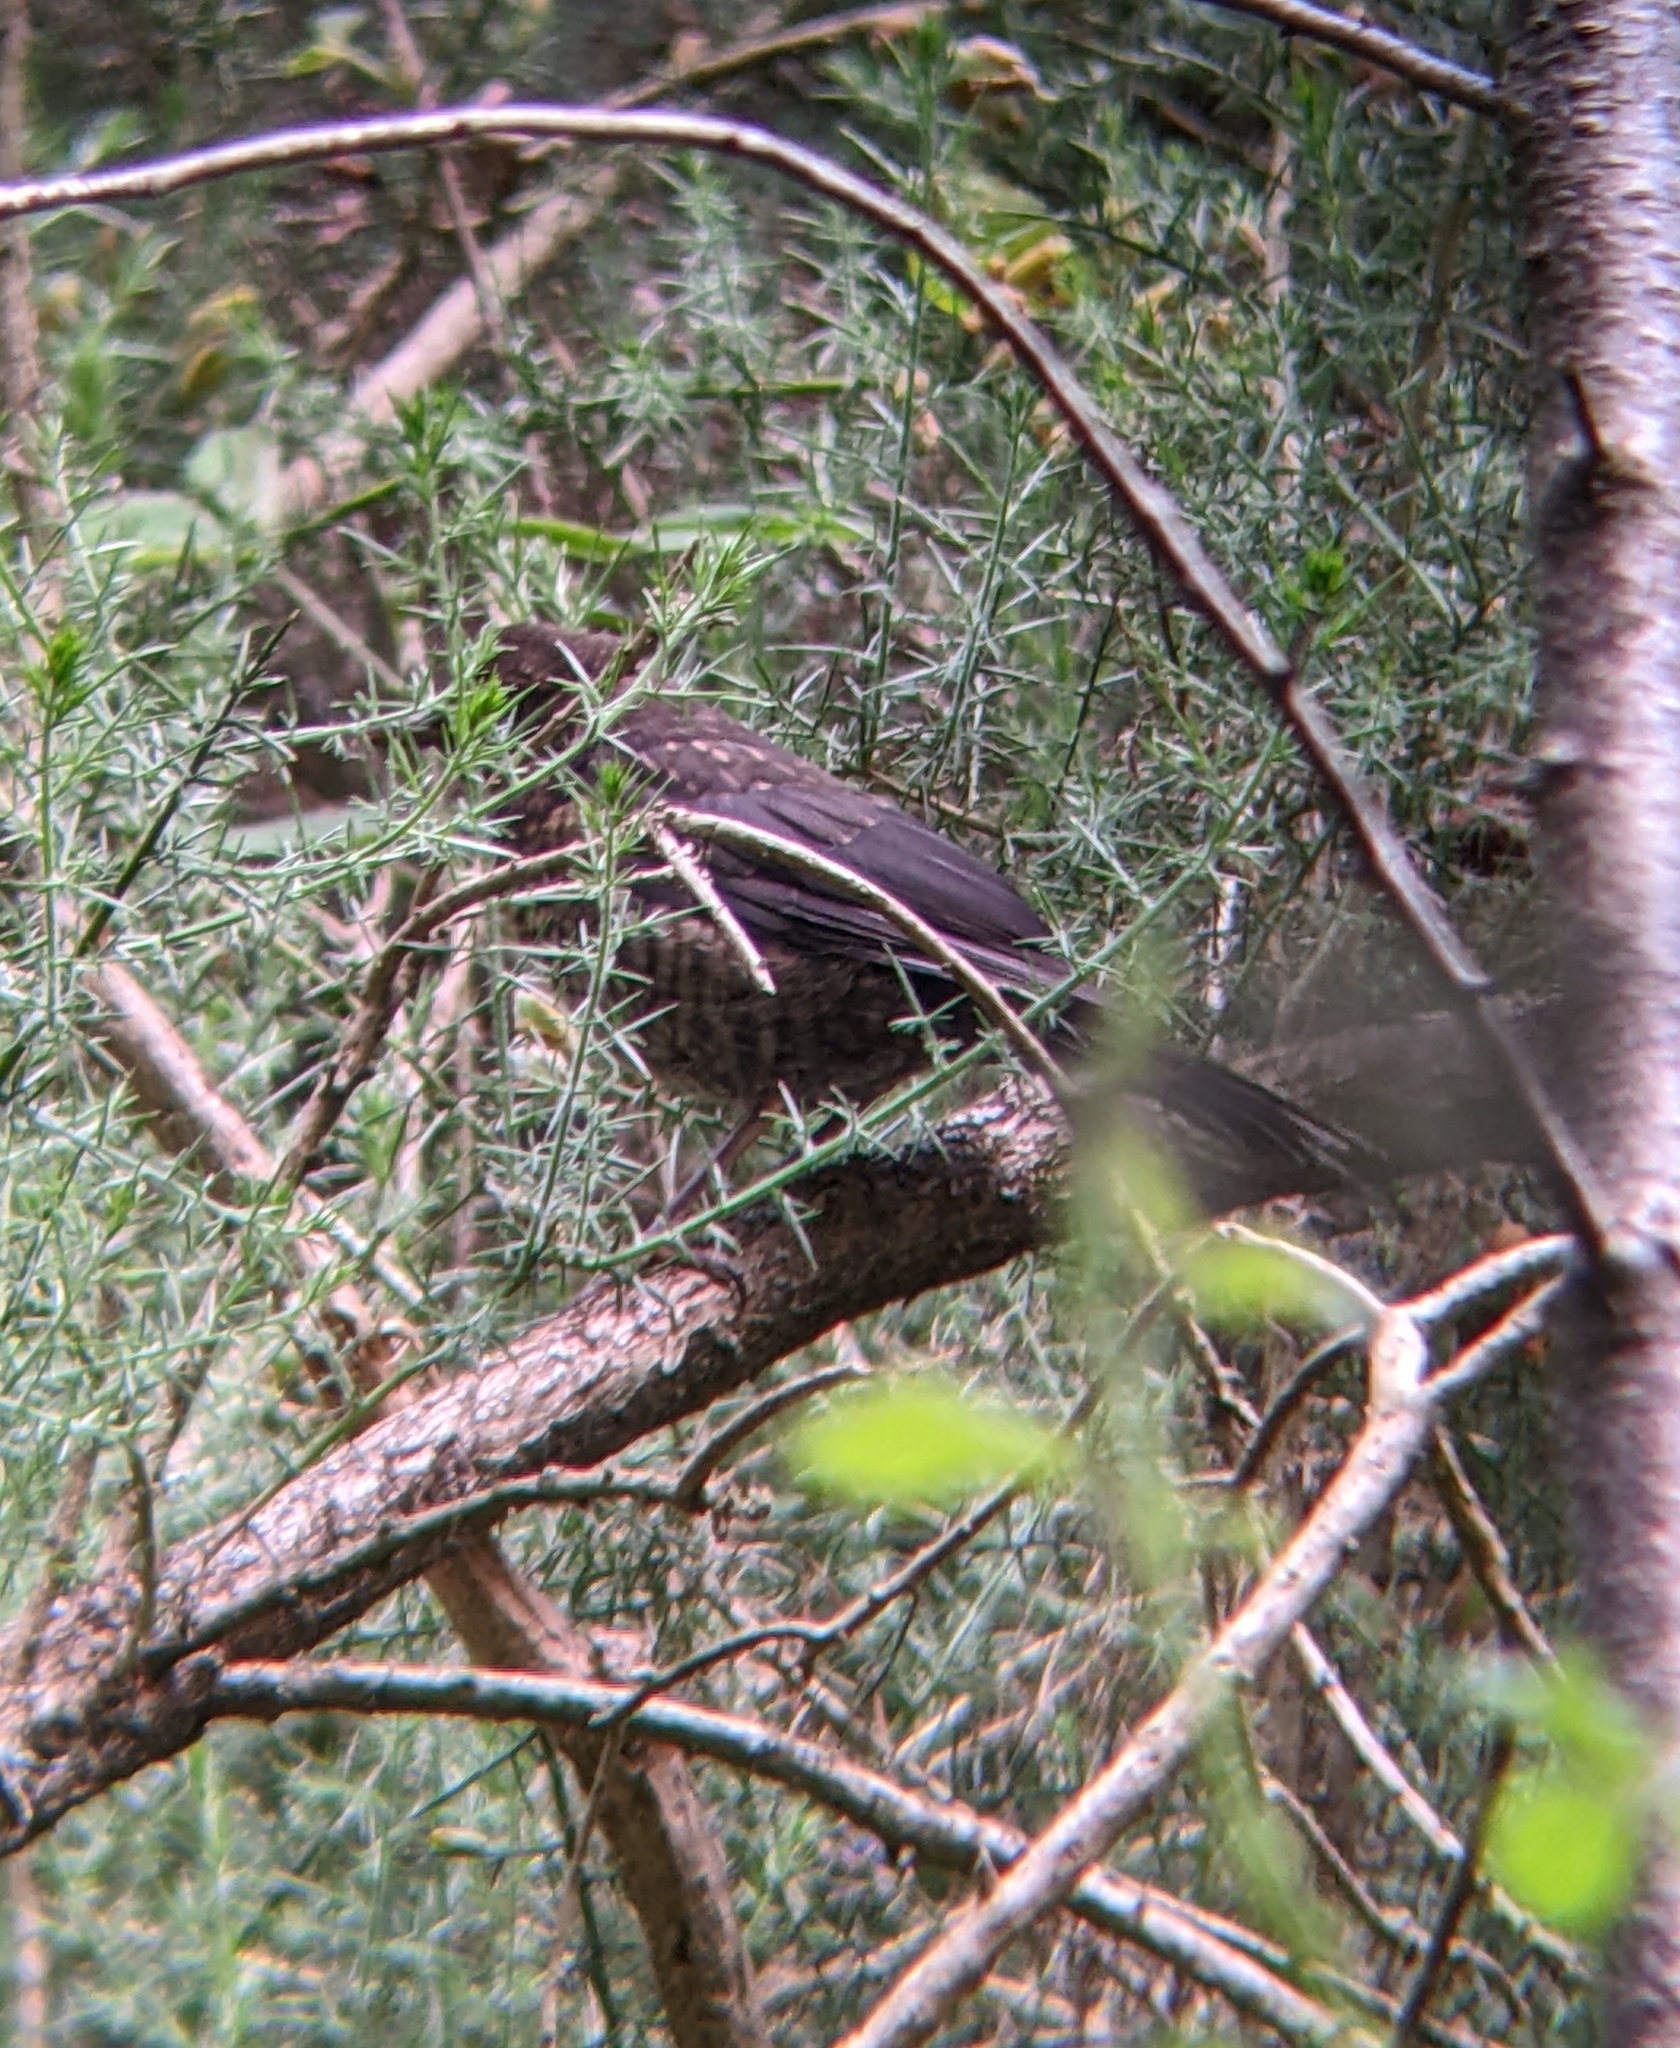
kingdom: Animalia
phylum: Chordata
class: Aves
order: Passeriformes
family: Turdidae
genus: Turdus
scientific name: Turdus merula
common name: Common blackbird
